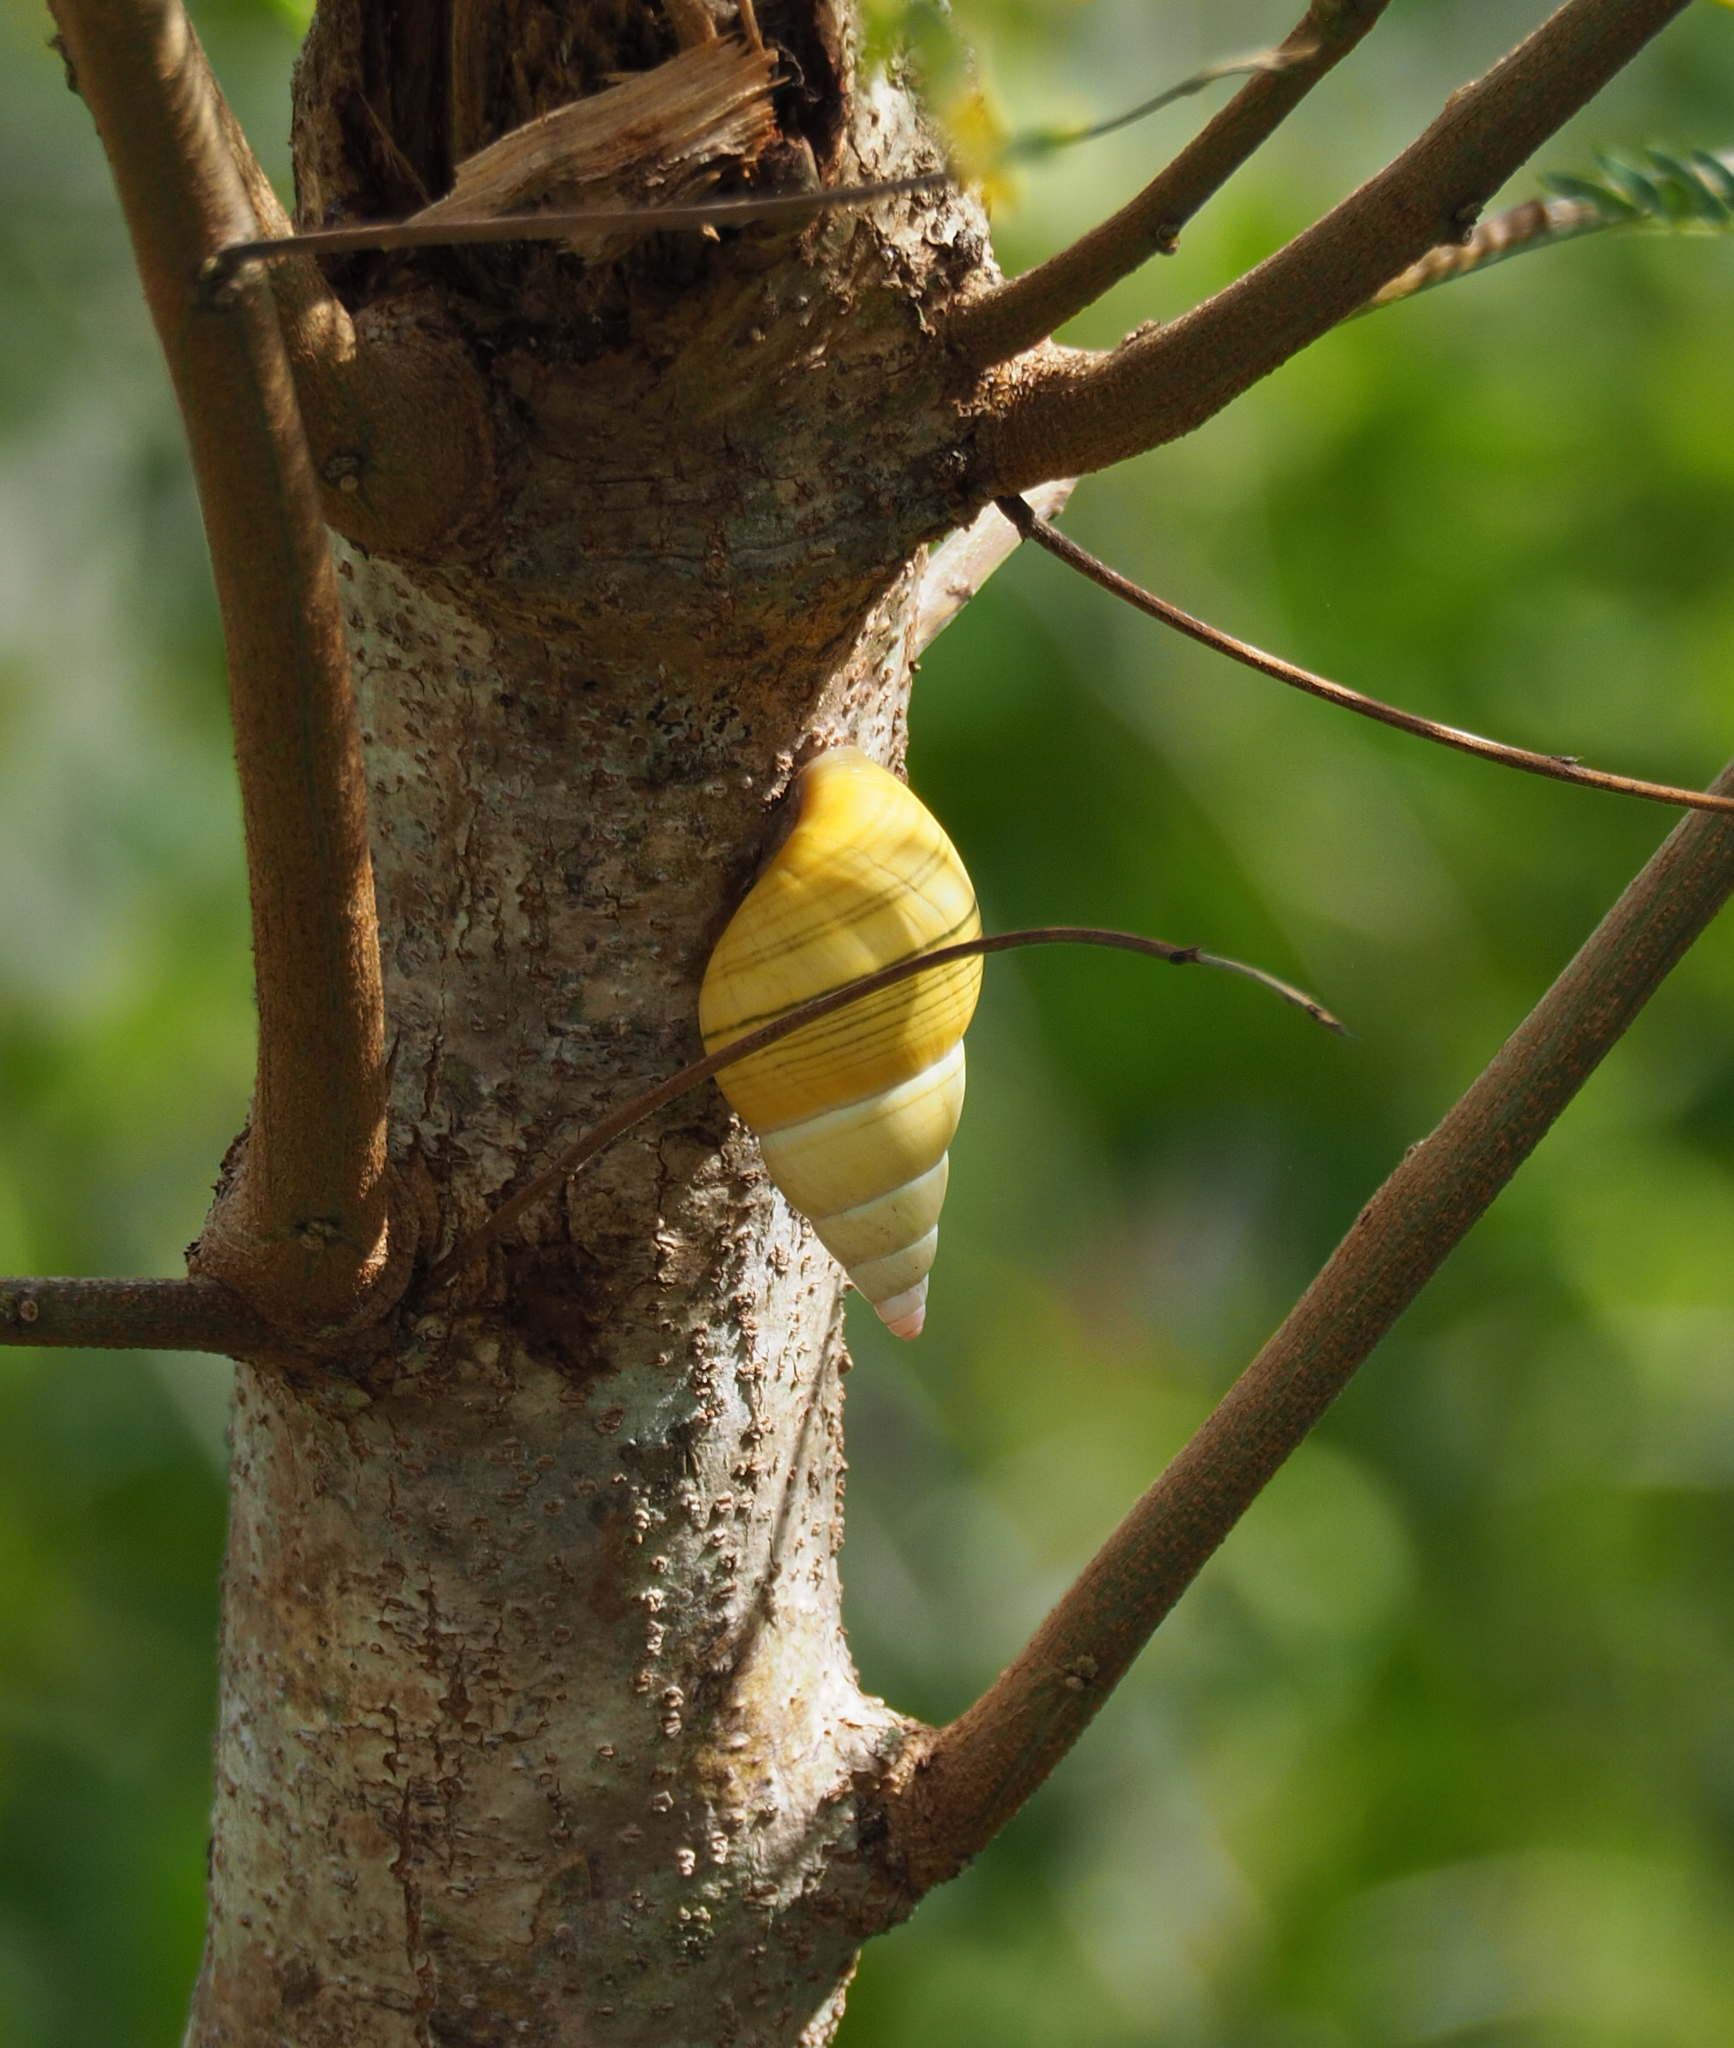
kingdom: Animalia
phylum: Mollusca
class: Gastropoda
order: Stylommatophora
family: Orthalicidae
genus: Liguus
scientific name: Liguus fasciatus
